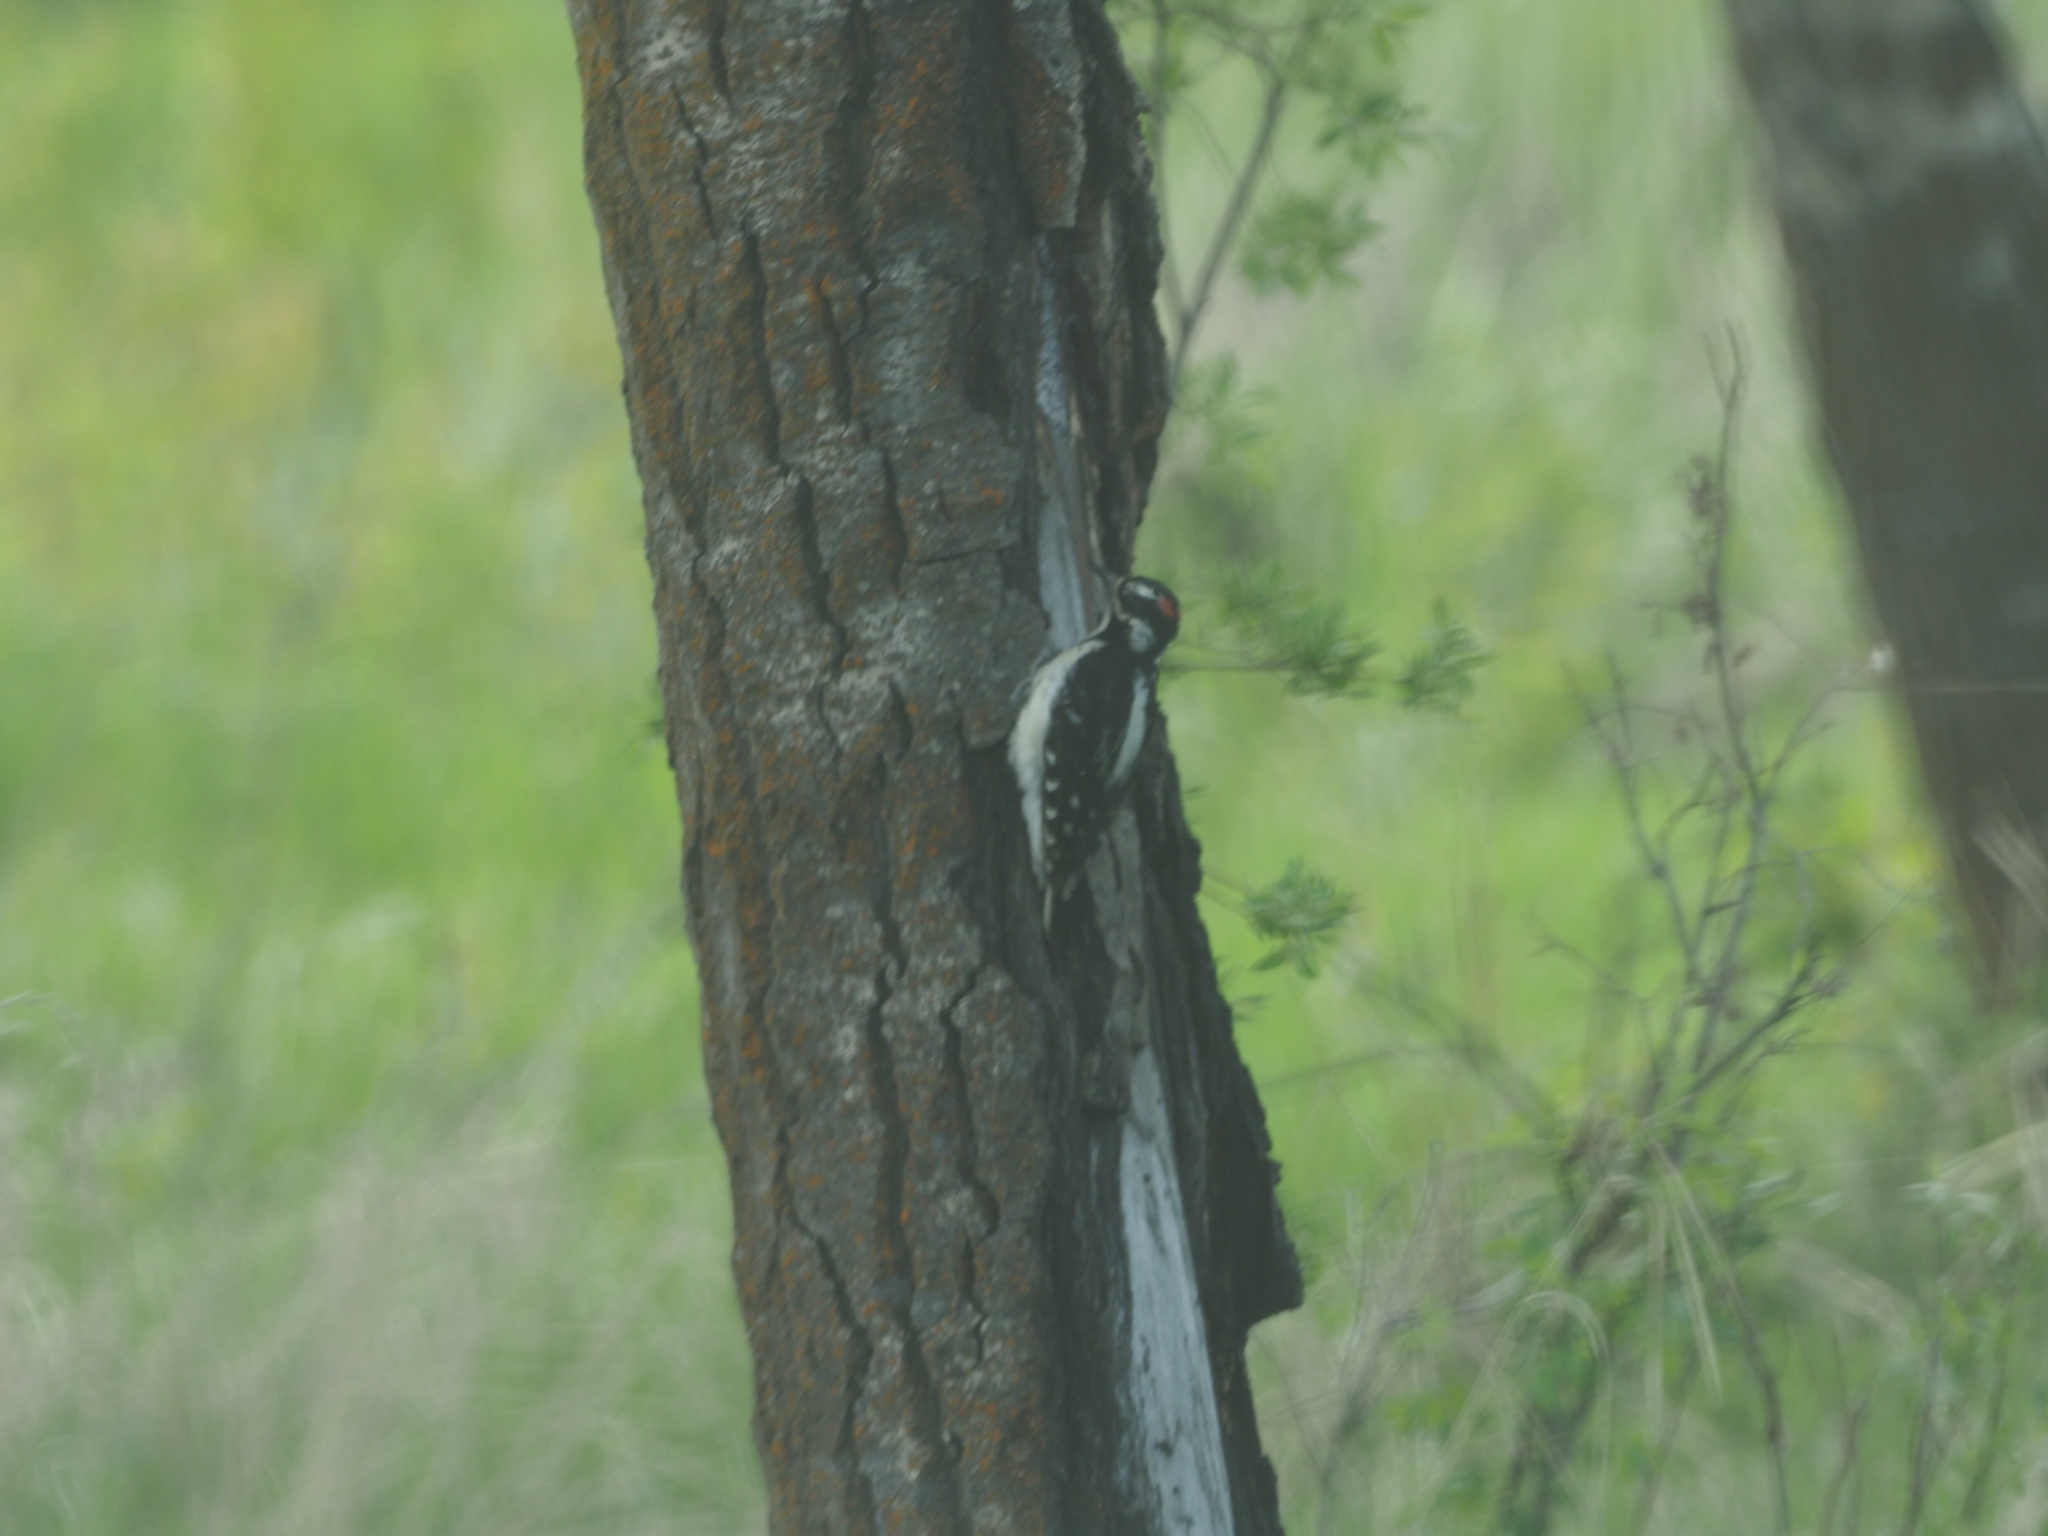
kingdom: Animalia
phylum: Chordata
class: Aves
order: Piciformes
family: Picidae
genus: Leuconotopicus
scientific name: Leuconotopicus villosus
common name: Hairy woodpecker
